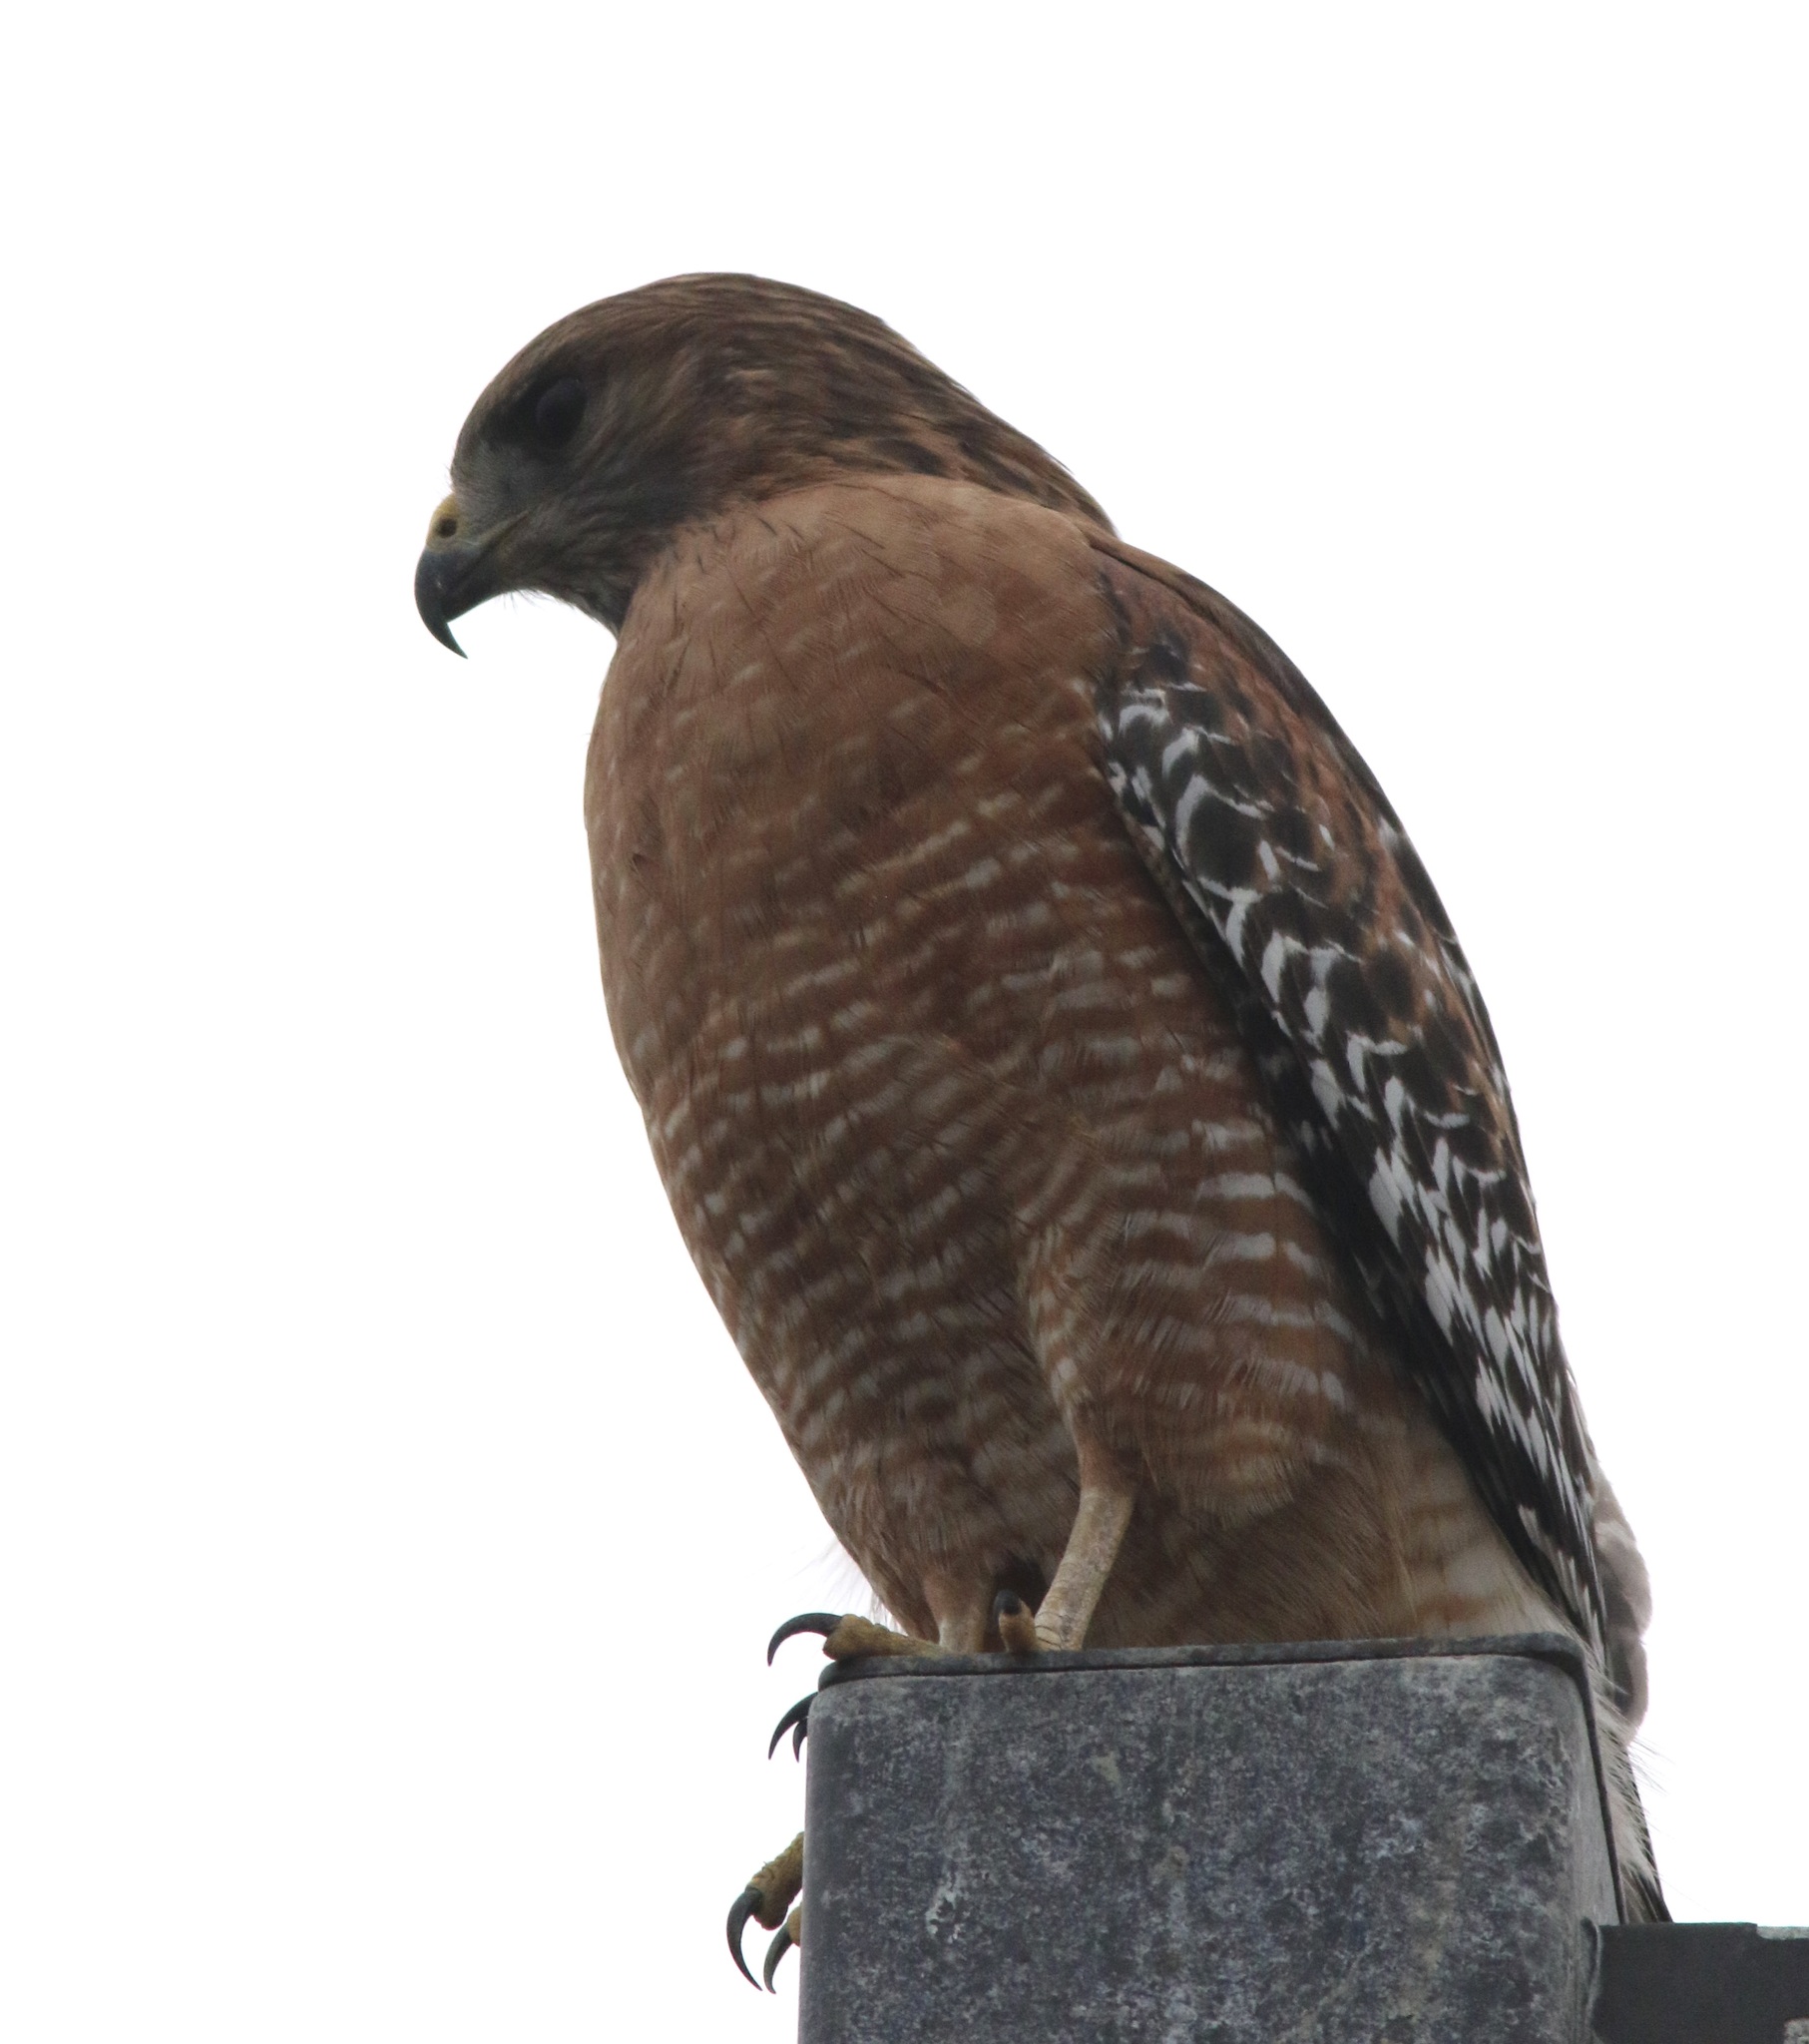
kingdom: Animalia
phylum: Chordata
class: Aves
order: Accipitriformes
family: Accipitridae
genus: Buteo
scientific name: Buteo lineatus
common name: Red-shouldered hawk
